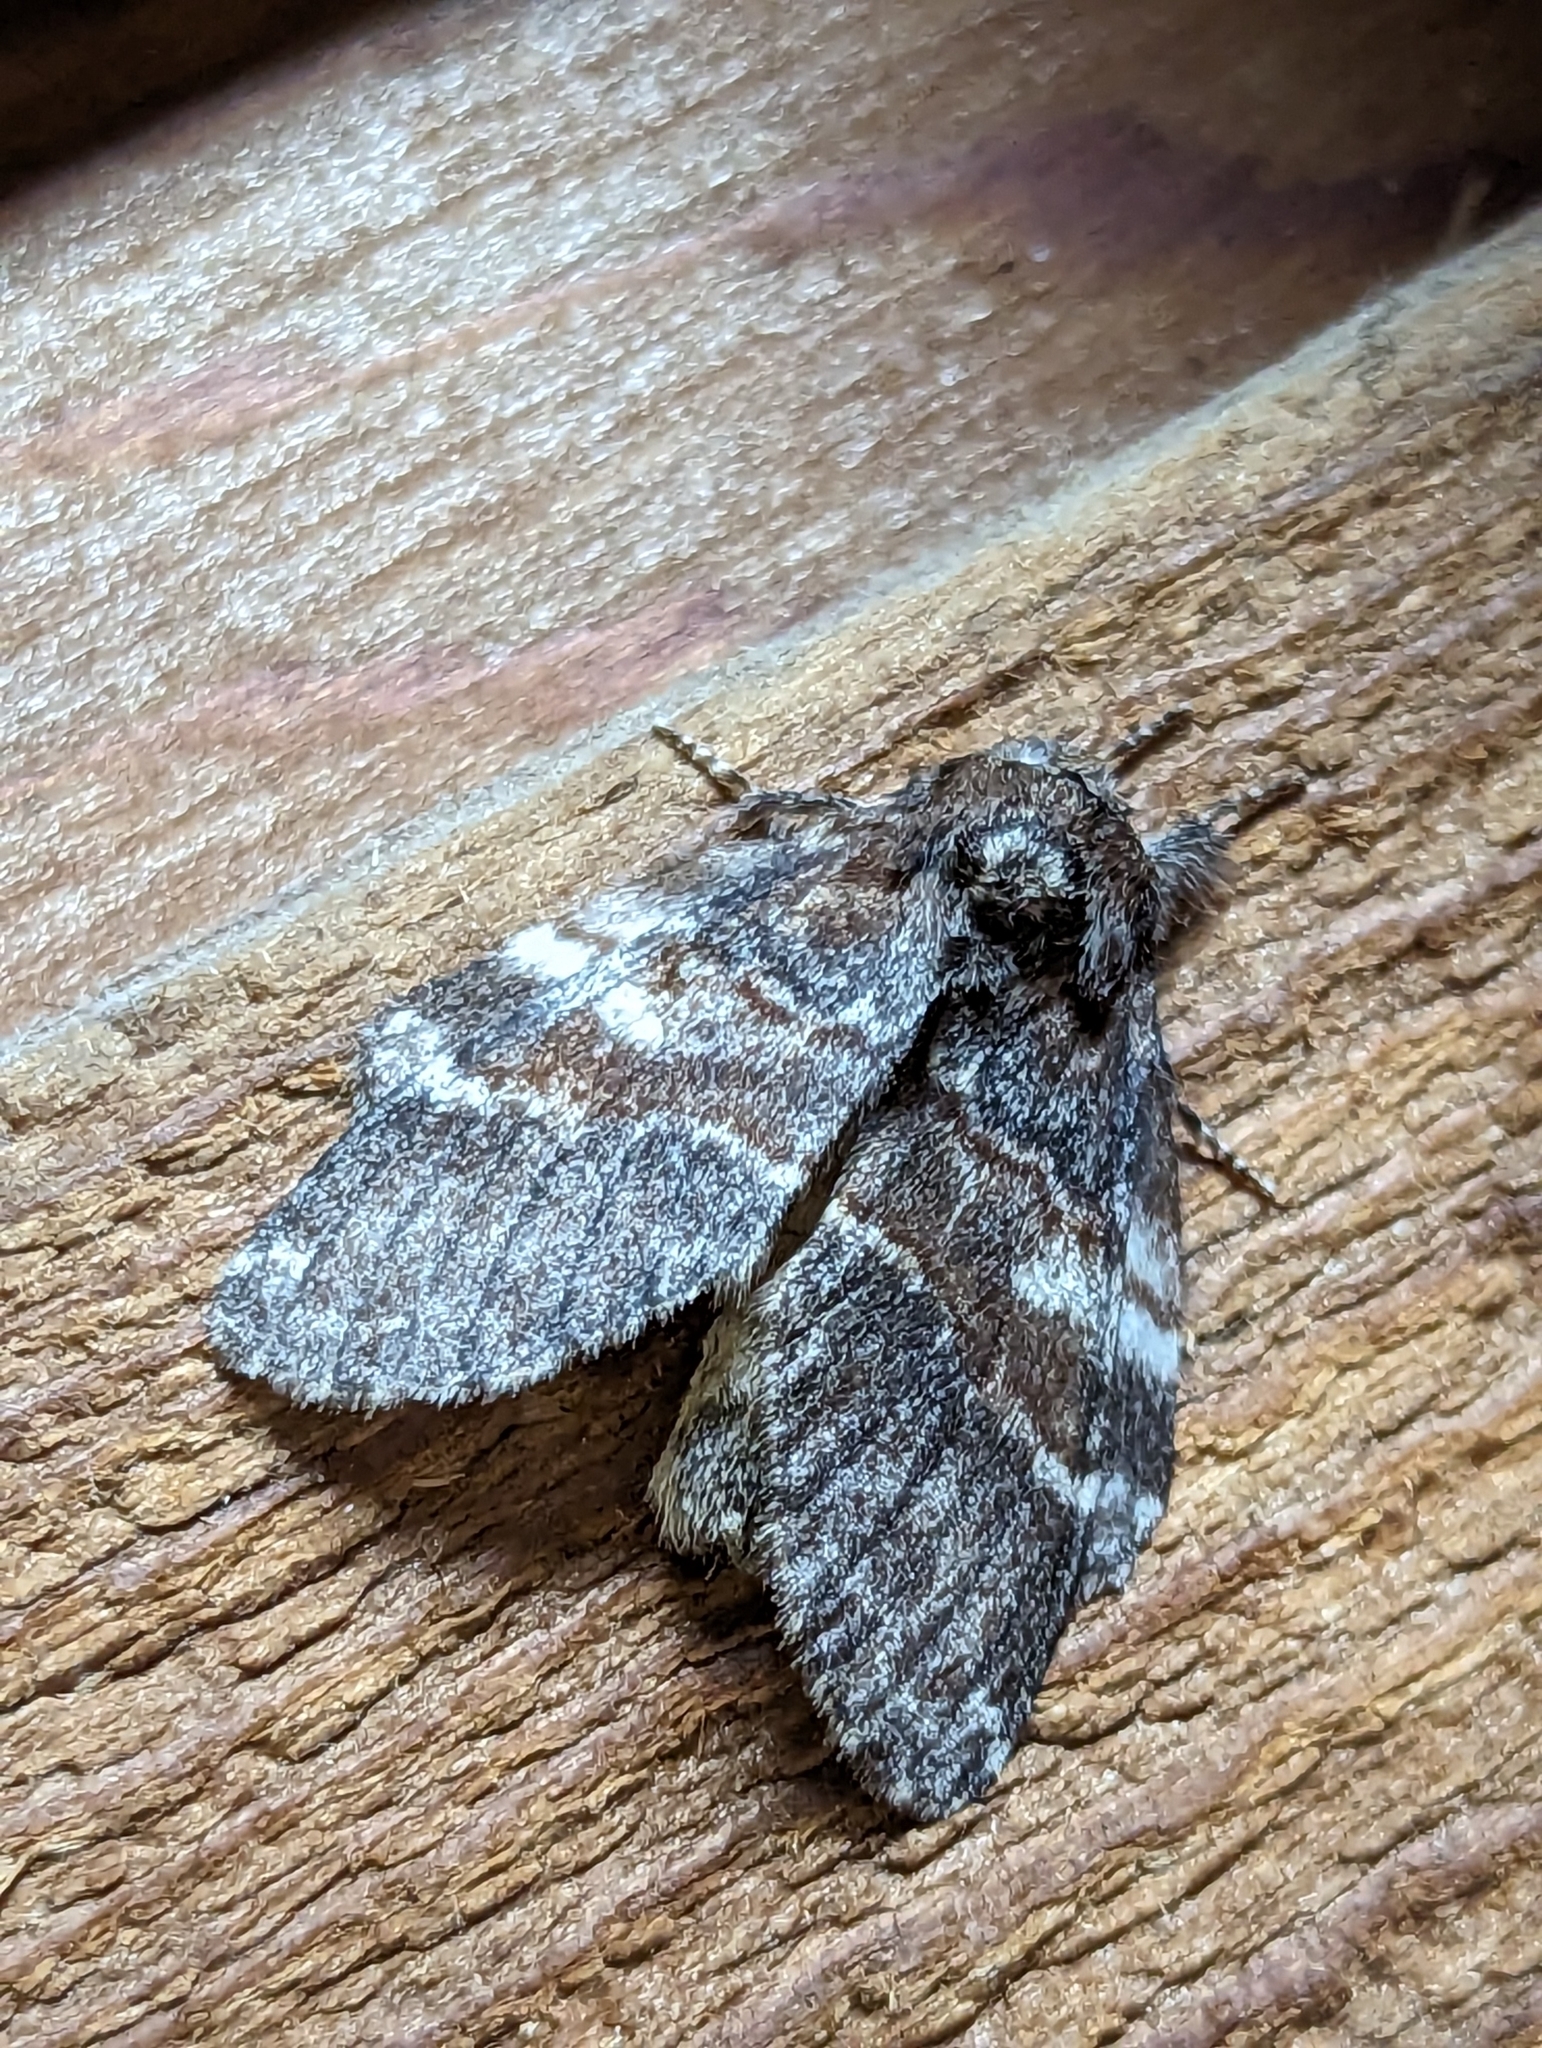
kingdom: Animalia
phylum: Arthropoda
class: Insecta
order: Lepidoptera
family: Notodontidae
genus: Peridea
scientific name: Peridea ferruginea
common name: Chocolate prominent
